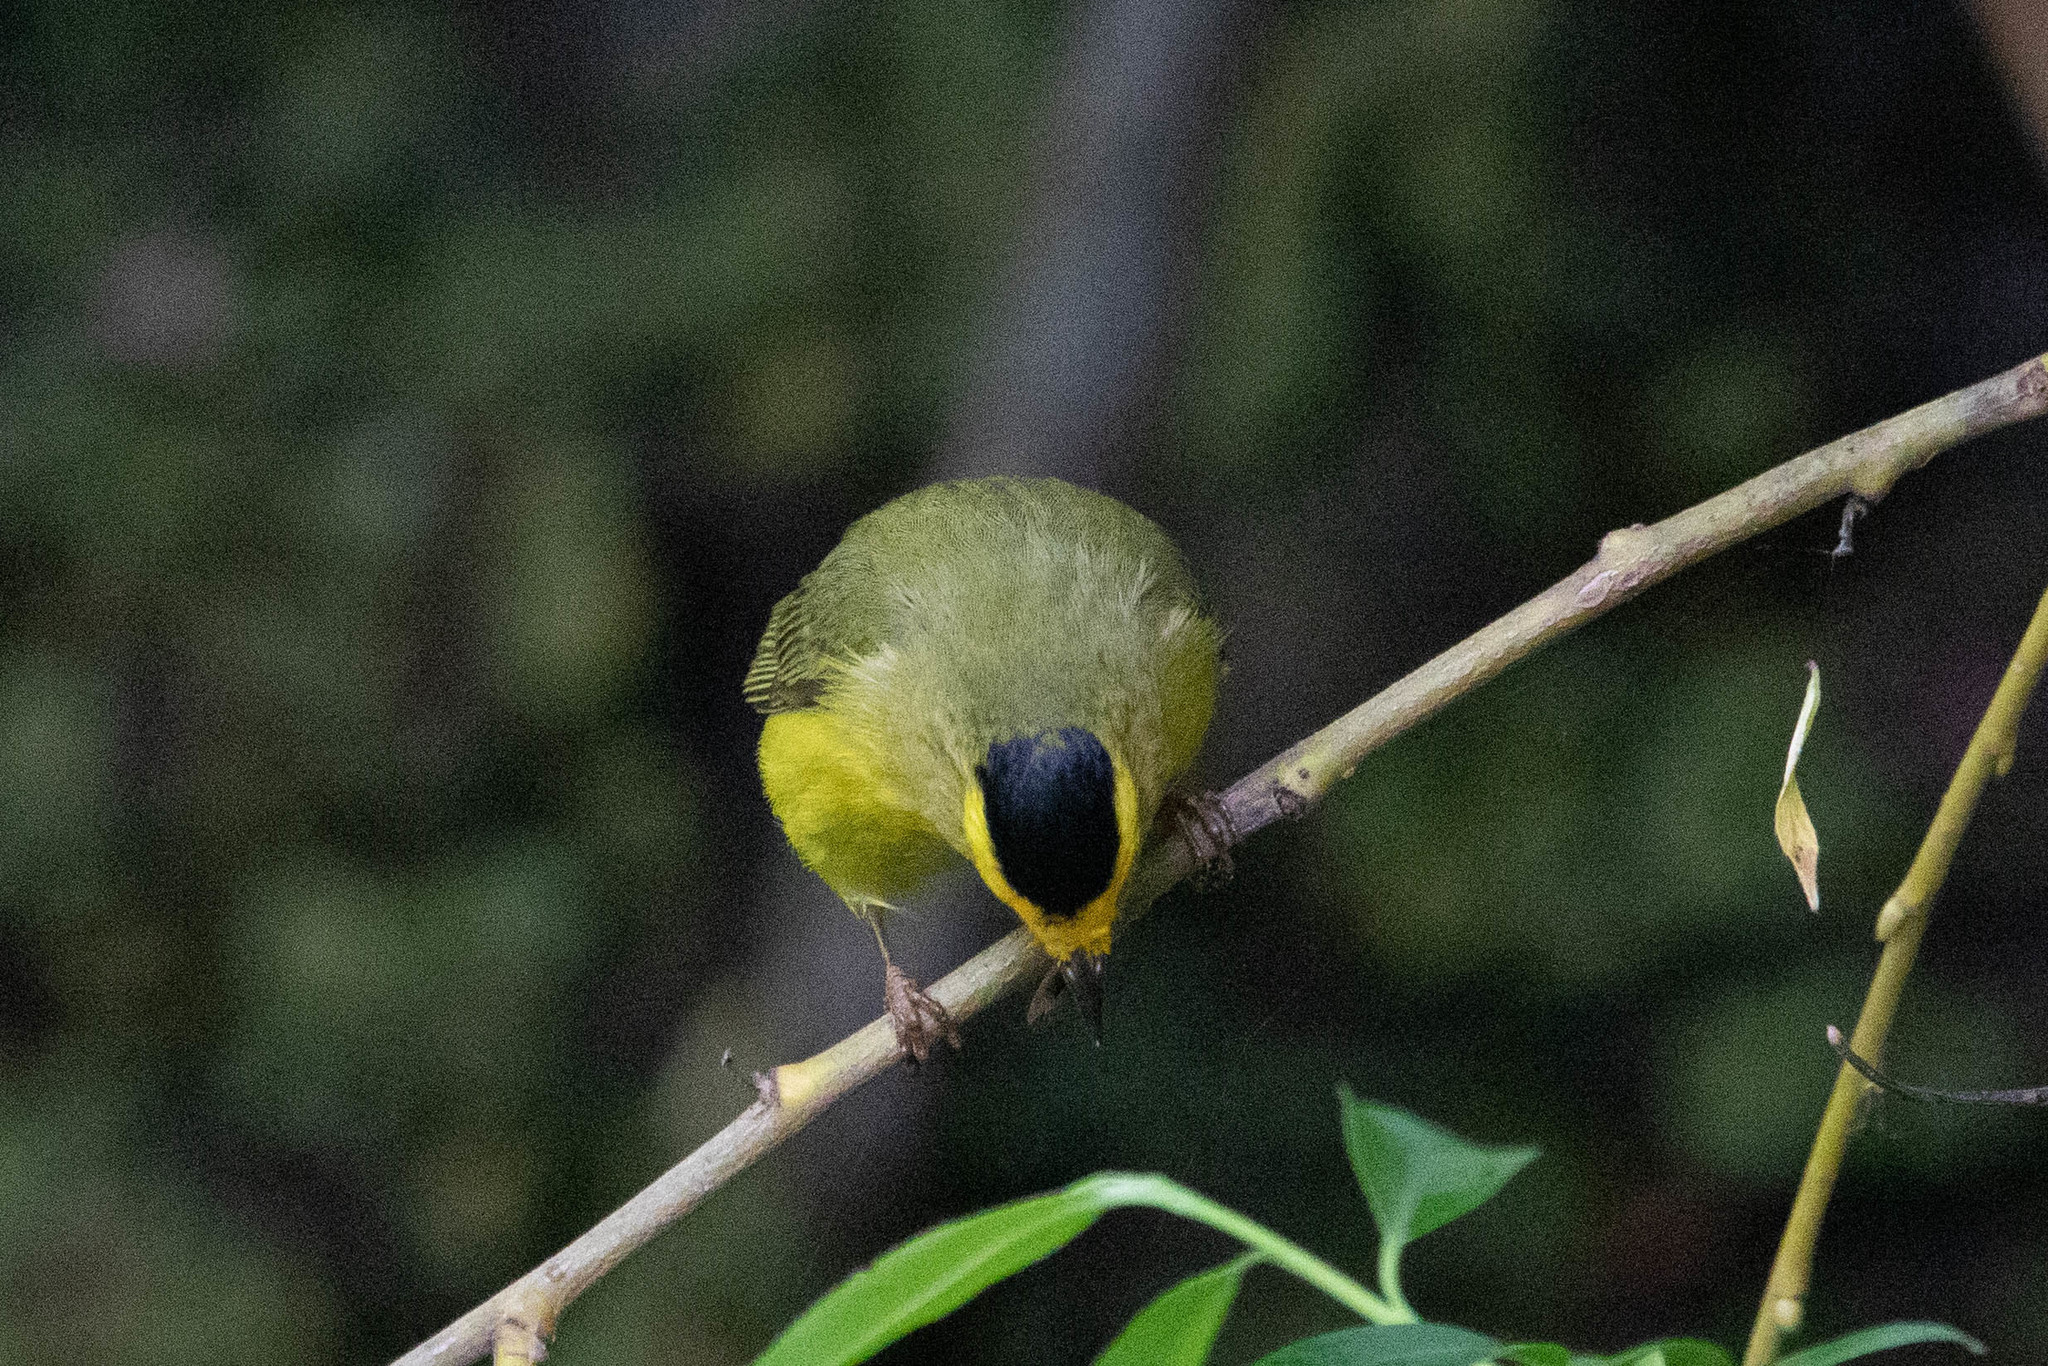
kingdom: Animalia
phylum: Chordata
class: Aves
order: Passeriformes
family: Parulidae
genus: Cardellina
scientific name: Cardellina pusilla
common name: Wilson's warbler
